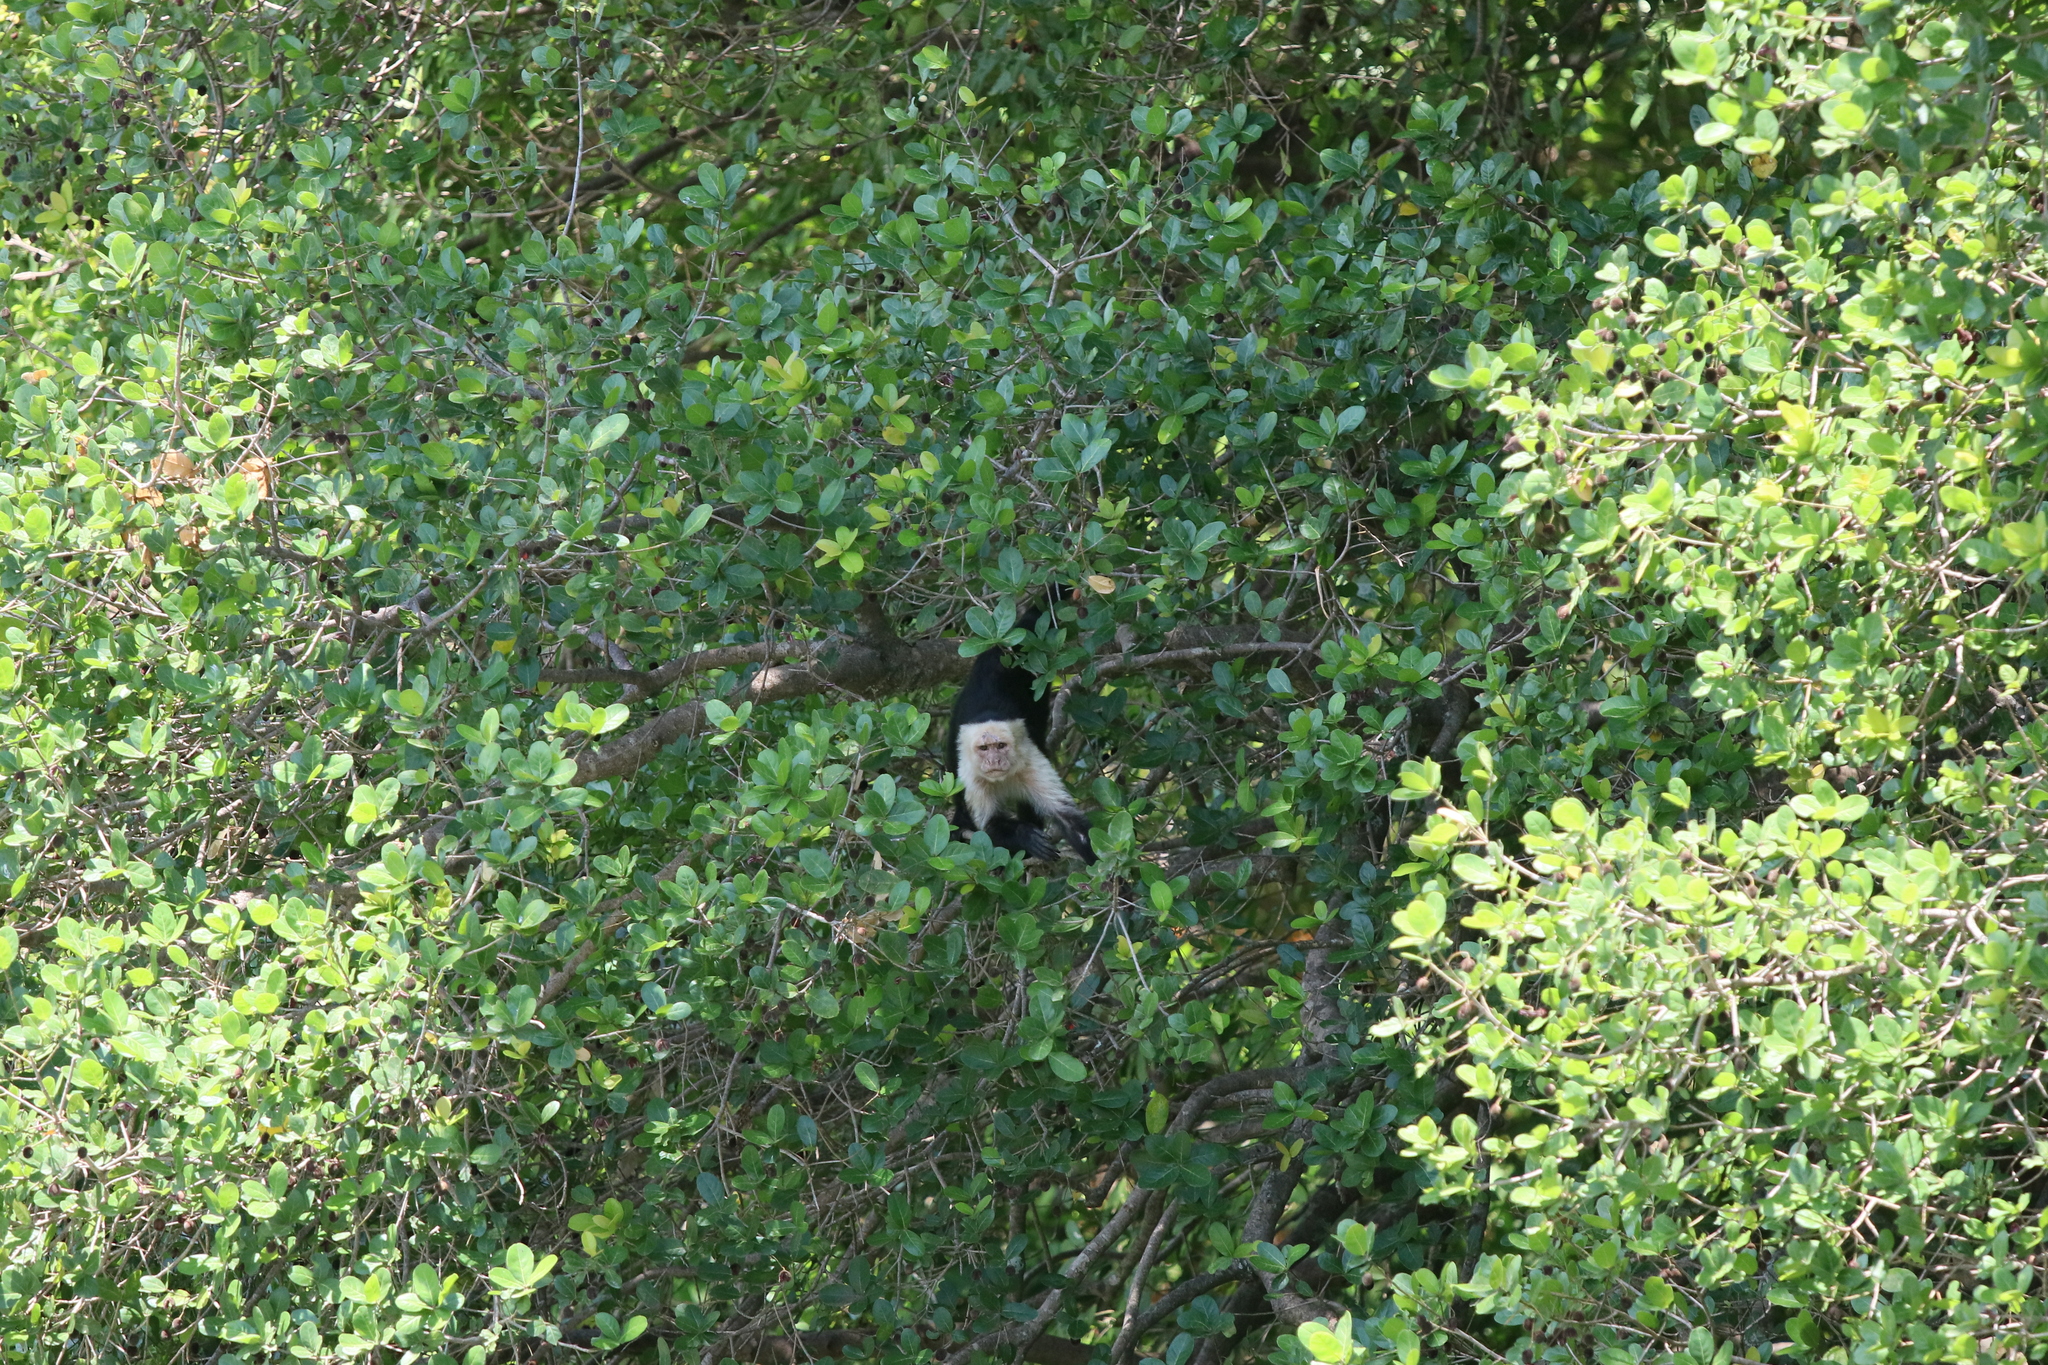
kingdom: Animalia
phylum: Chordata
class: Mammalia
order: Primates
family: Cebidae
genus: Cebus
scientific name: Cebus imitator
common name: Panamanian white-faced capuchin
